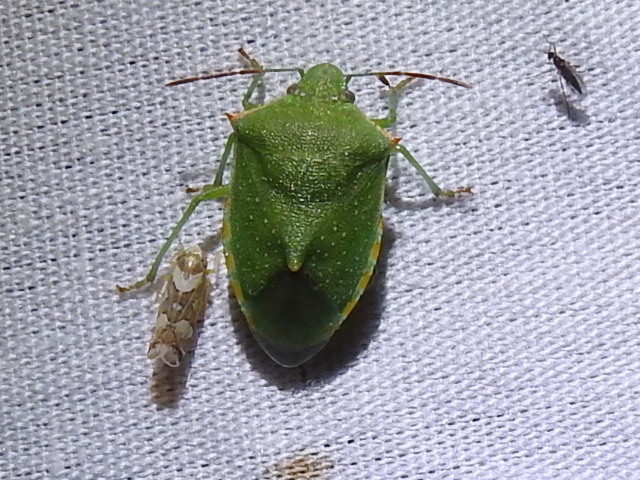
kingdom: Animalia
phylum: Arthropoda
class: Insecta
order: Hemiptera
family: Pentatomidae
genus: Thyanta
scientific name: Thyanta custator
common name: Stink bug
